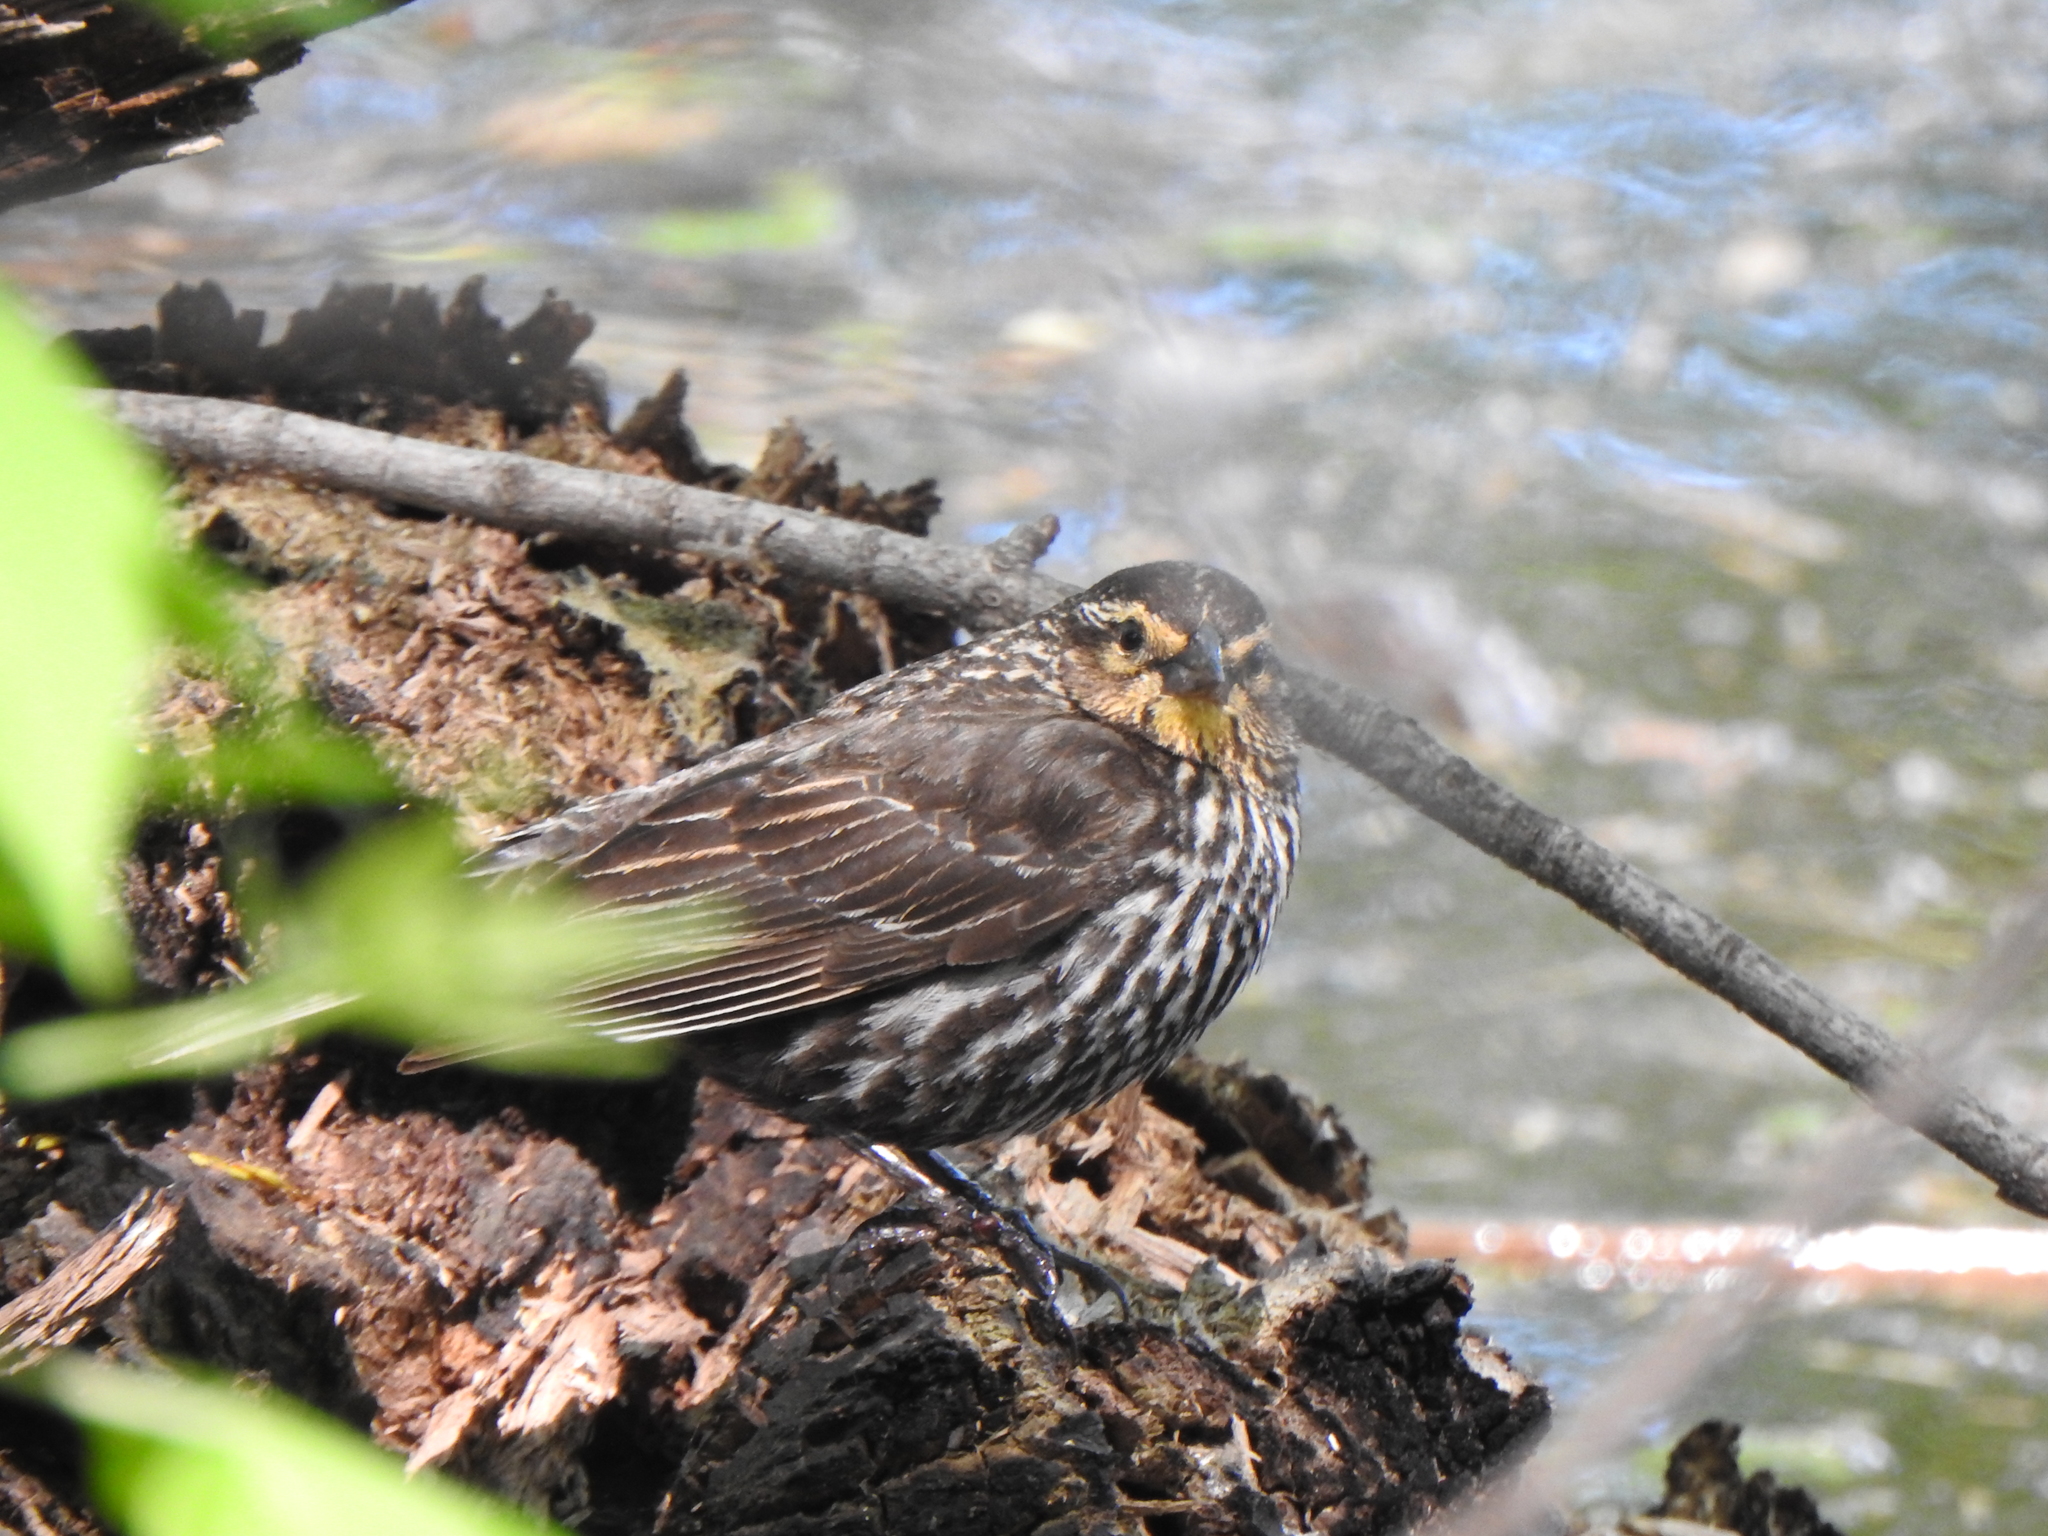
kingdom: Animalia
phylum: Chordata
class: Aves
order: Passeriformes
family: Icteridae
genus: Agelaius
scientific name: Agelaius phoeniceus
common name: Red-winged blackbird
